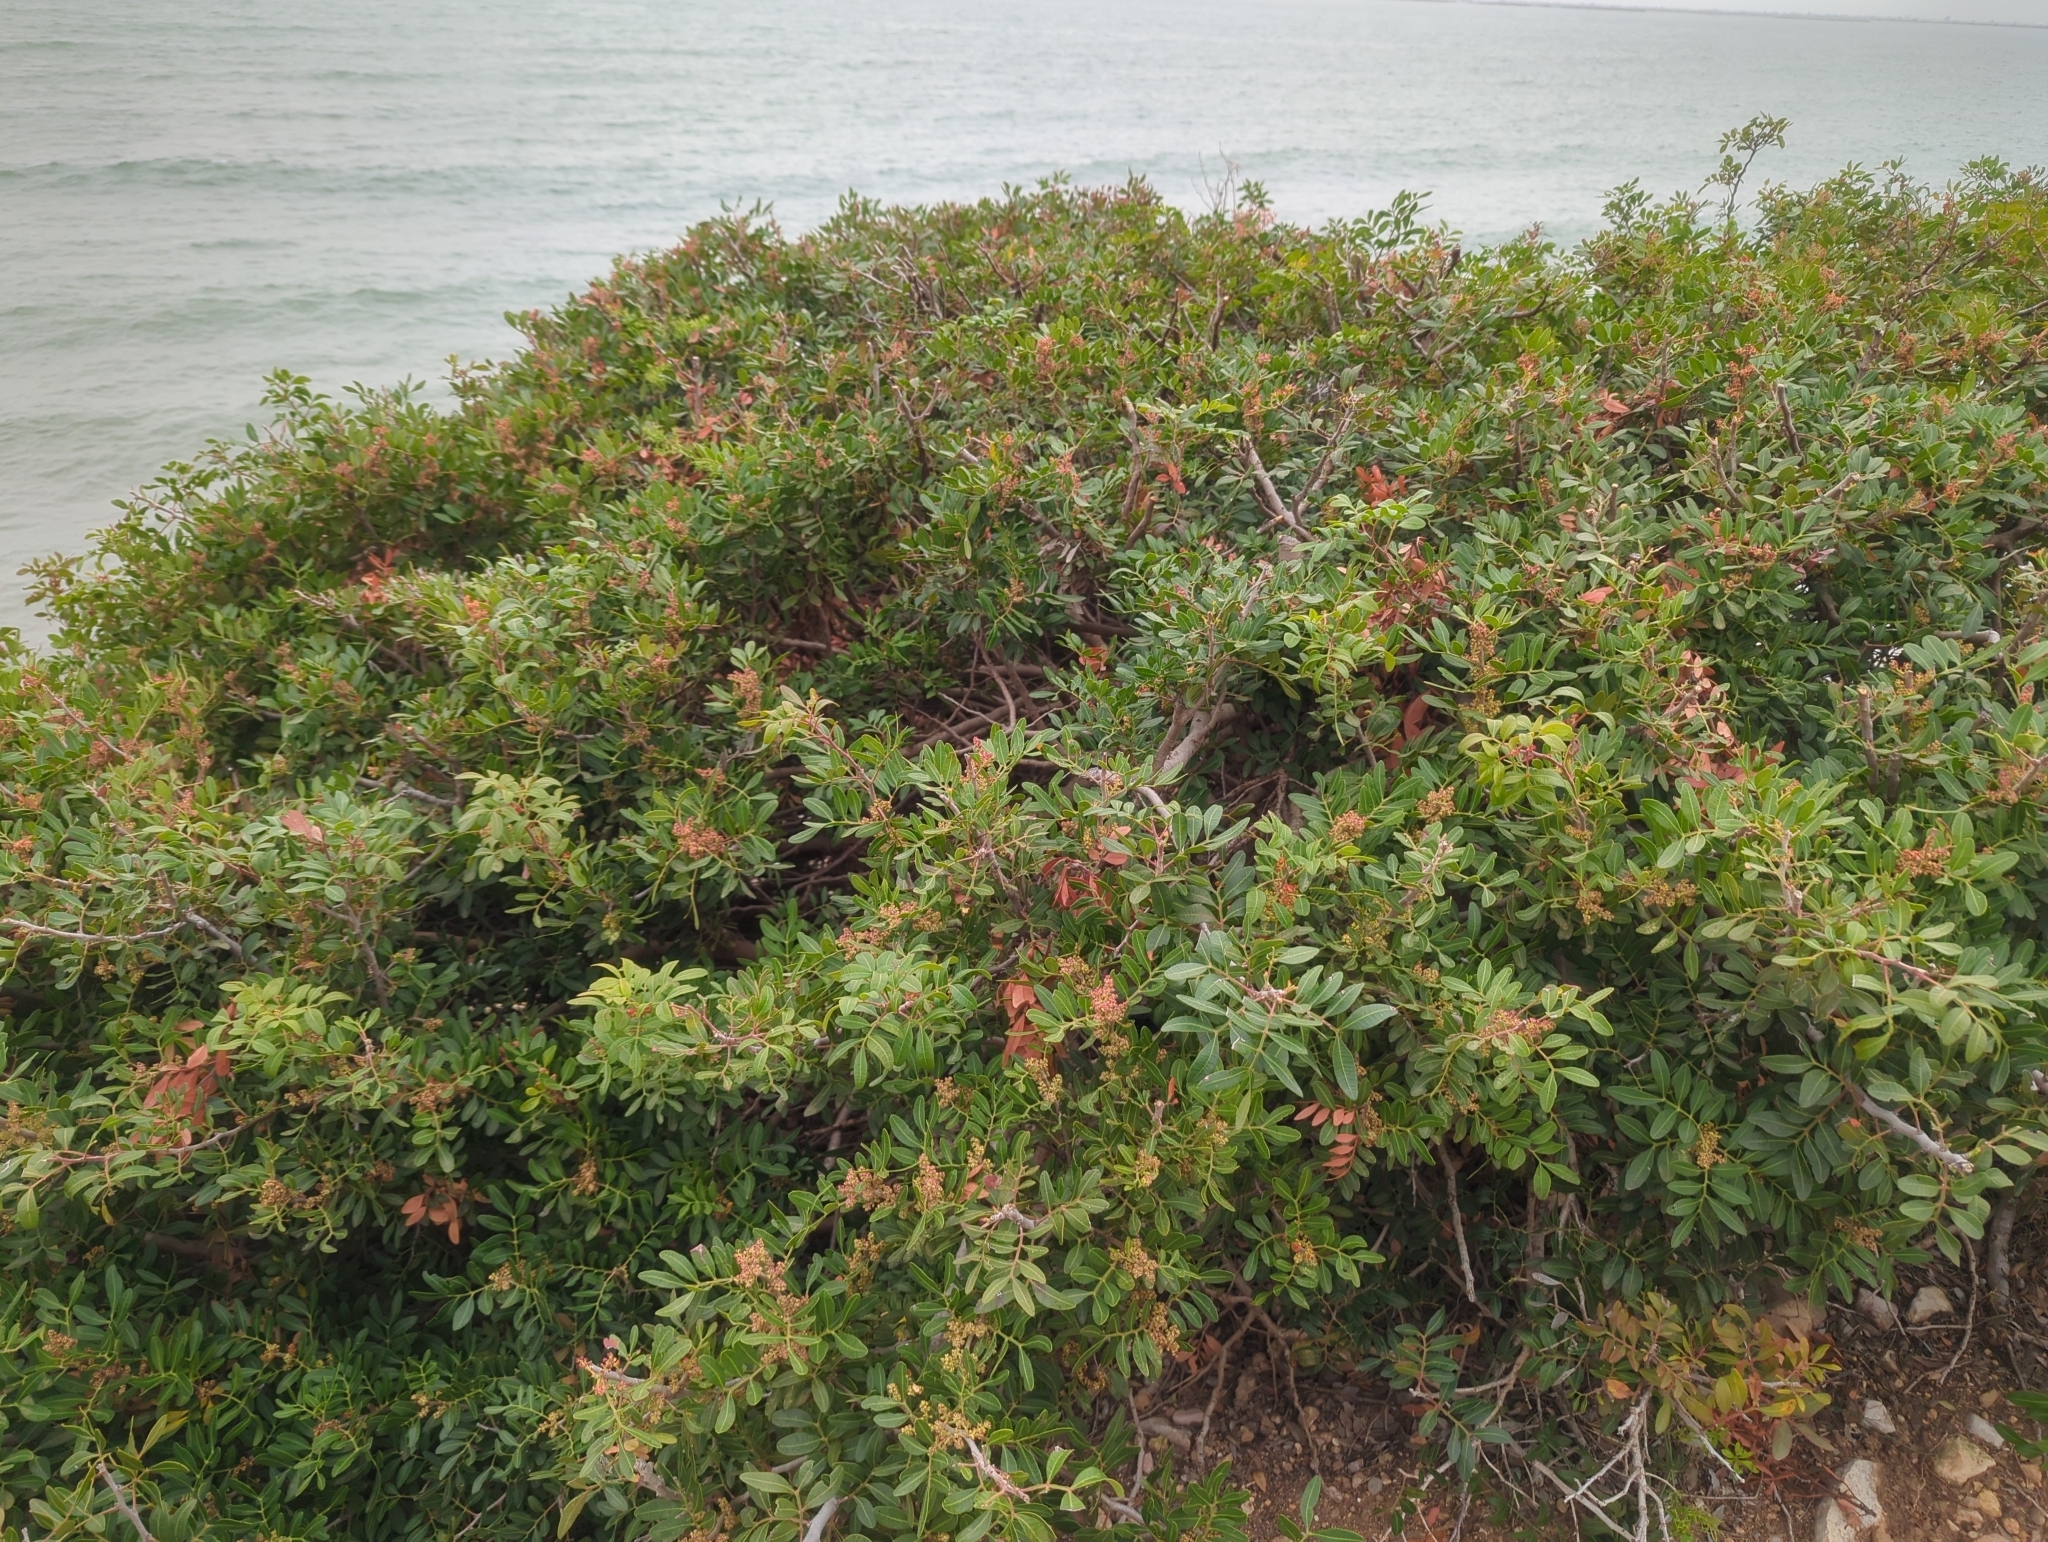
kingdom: Plantae
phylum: Tracheophyta
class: Magnoliopsida
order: Sapindales
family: Anacardiaceae
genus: Pistacia
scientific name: Pistacia lentiscus
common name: Lentisk
